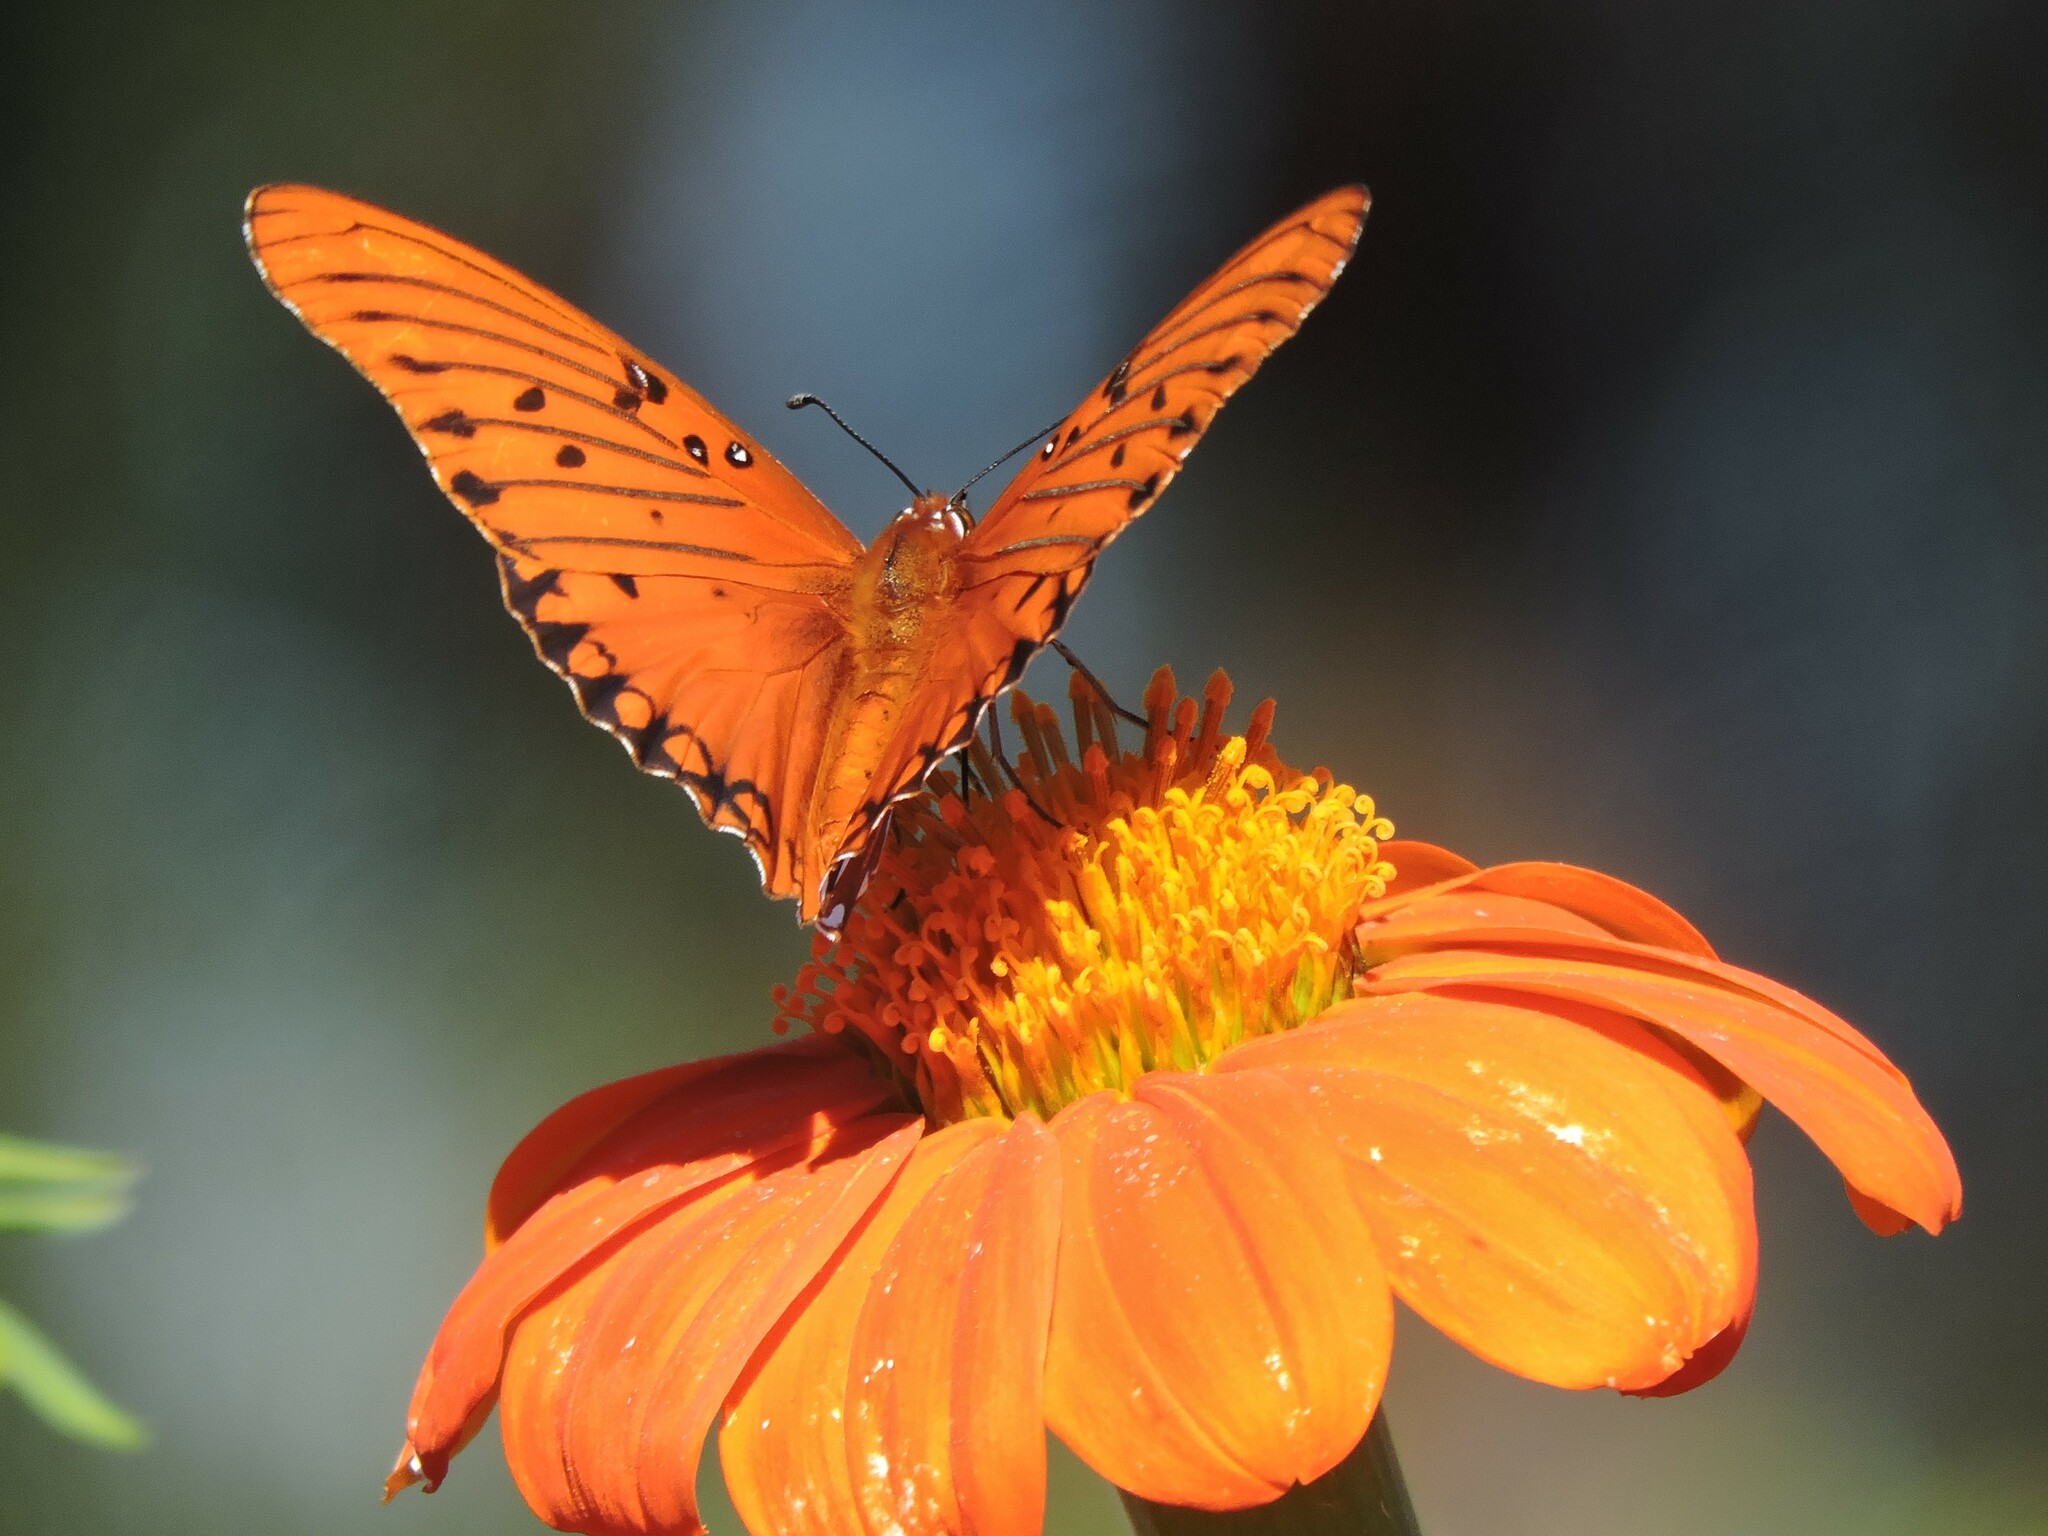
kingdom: Animalia
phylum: Arthropoda
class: Insecta
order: Lepidoptera
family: Nymphalidae
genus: Dione
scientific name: Dione vanillae
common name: Gulf fritillary
